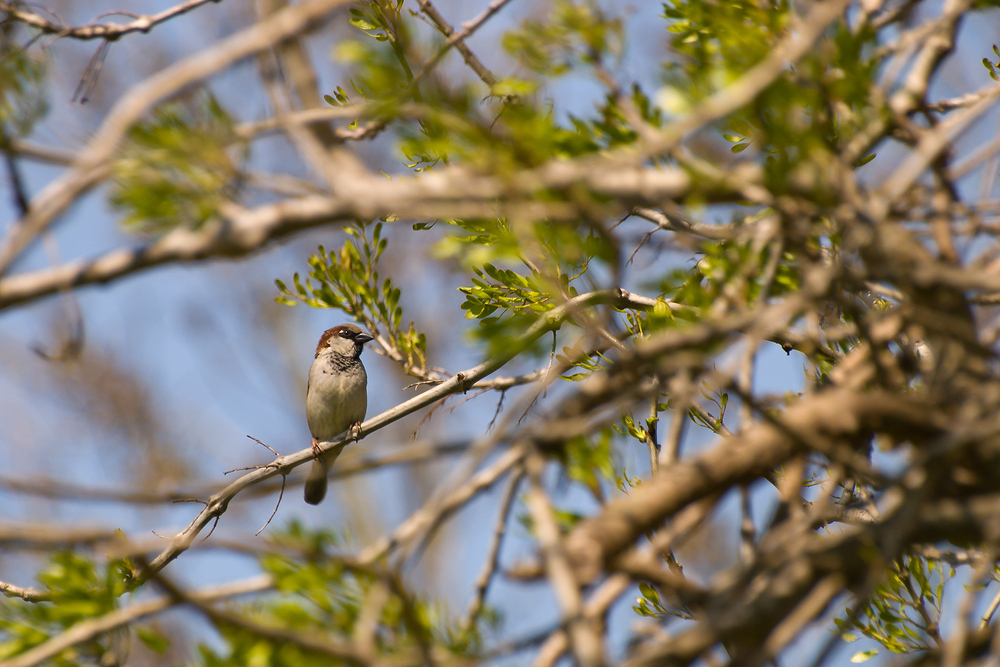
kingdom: Animalia
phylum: Chordata
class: Aves
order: Passeriformes
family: Passeridae
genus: Passer
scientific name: Passer domesticus
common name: House sparrow
